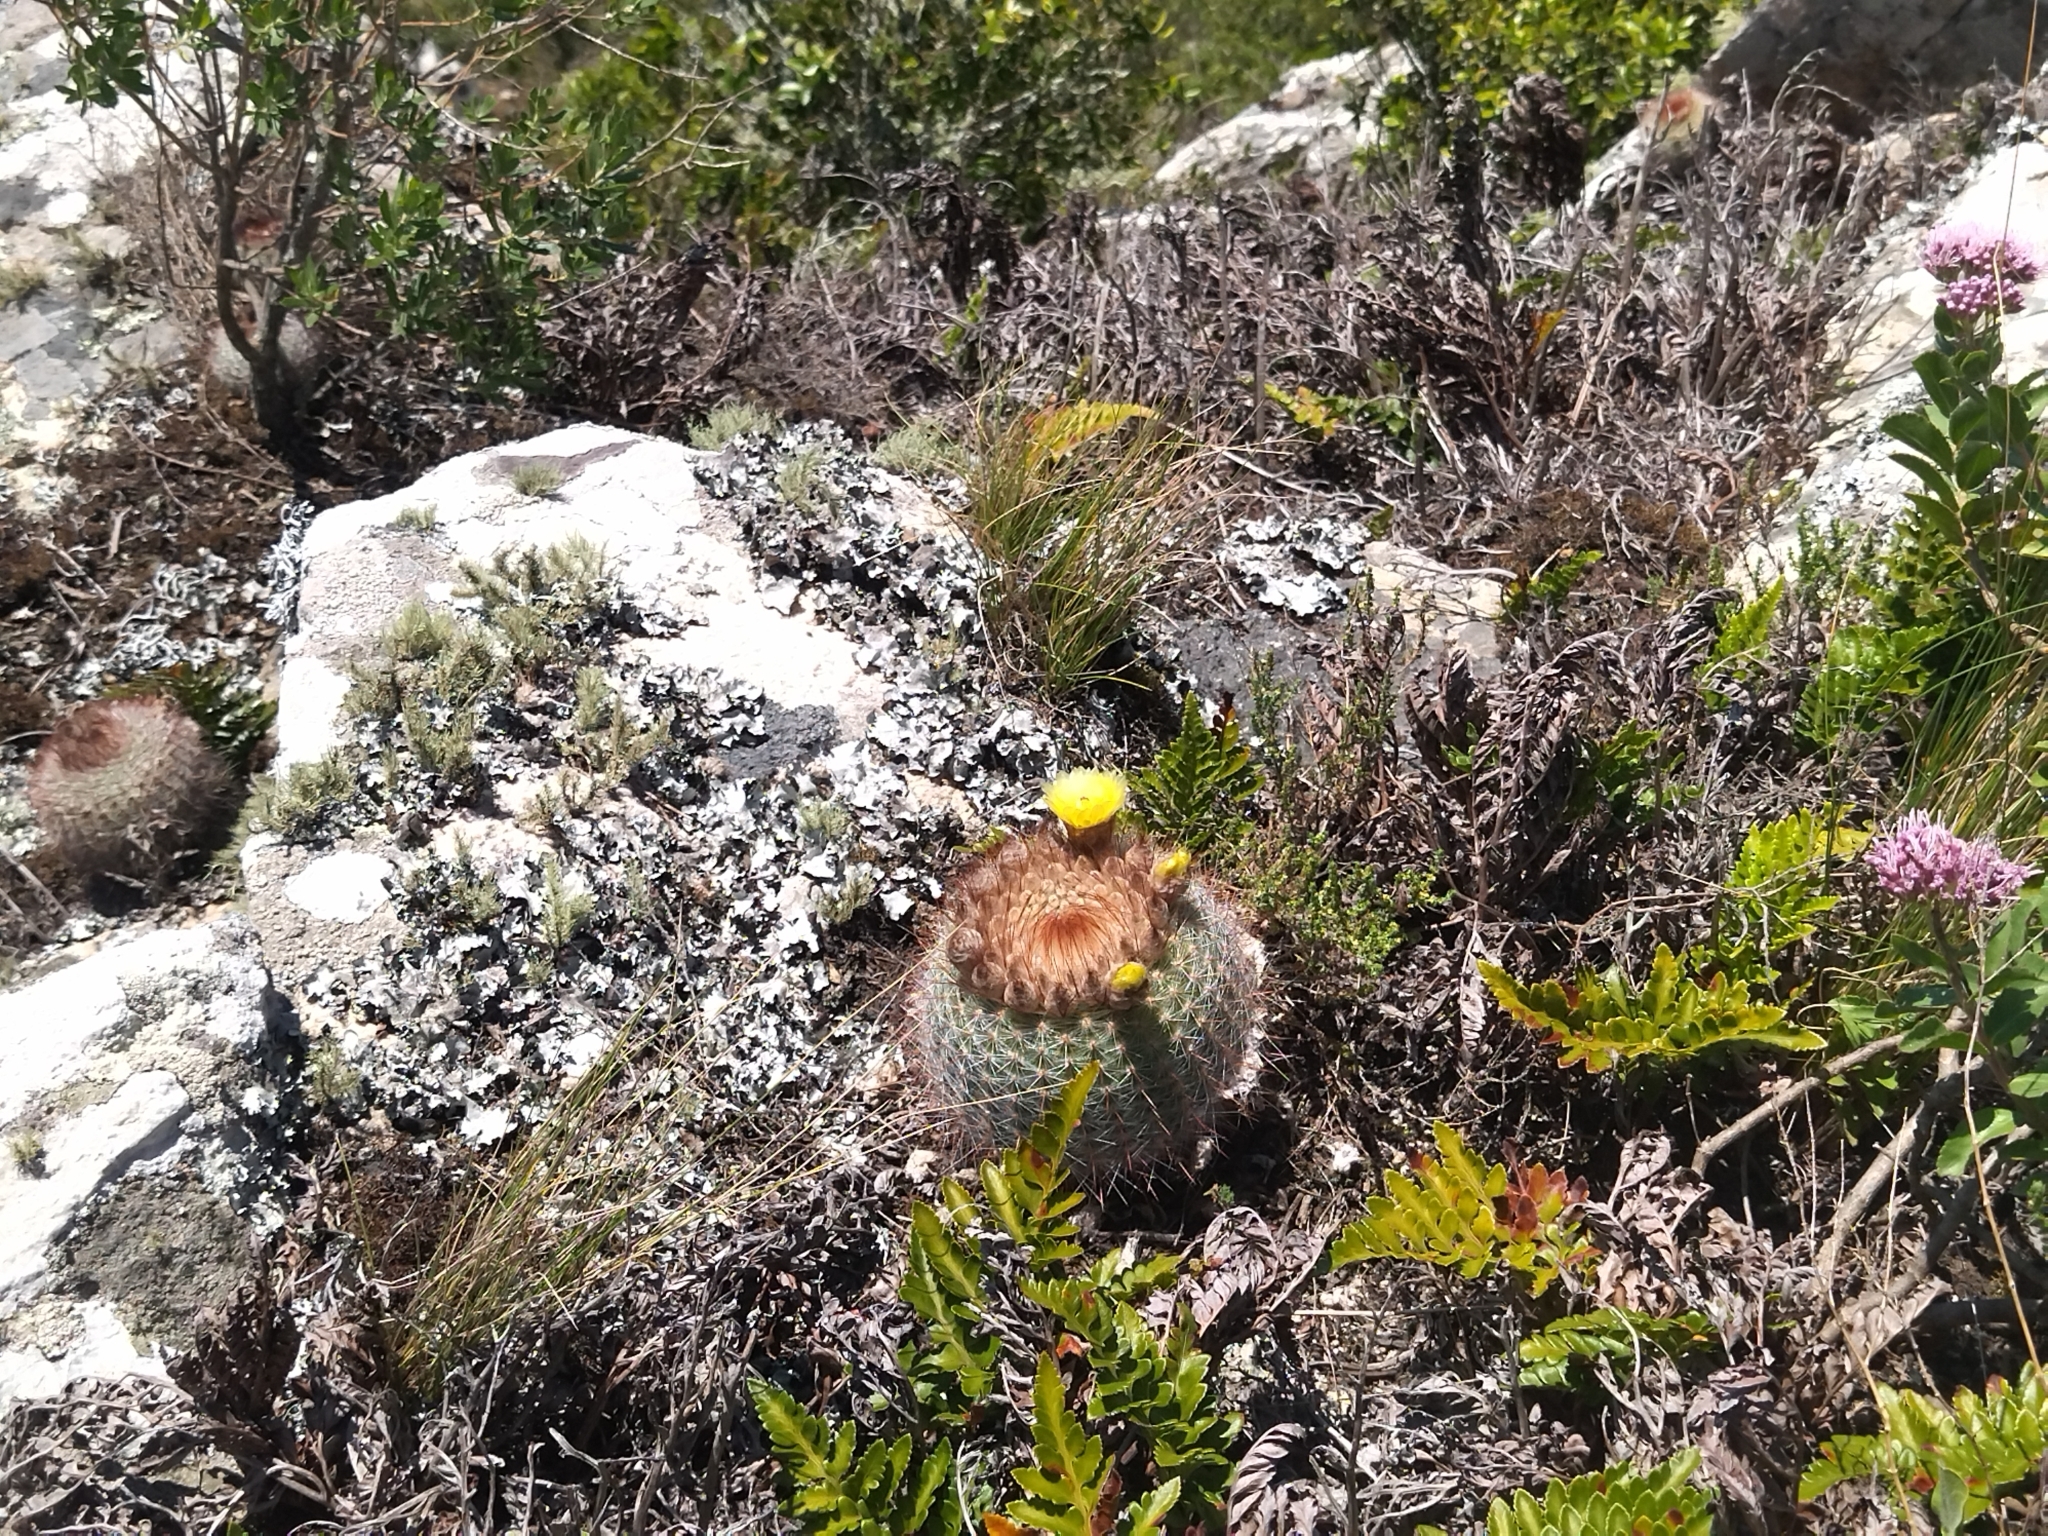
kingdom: Plantae
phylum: Tracheophyta
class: Magnoliopsida
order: Caryophyllales
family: Cactaceae
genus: Parodia
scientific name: Parodia scopa
